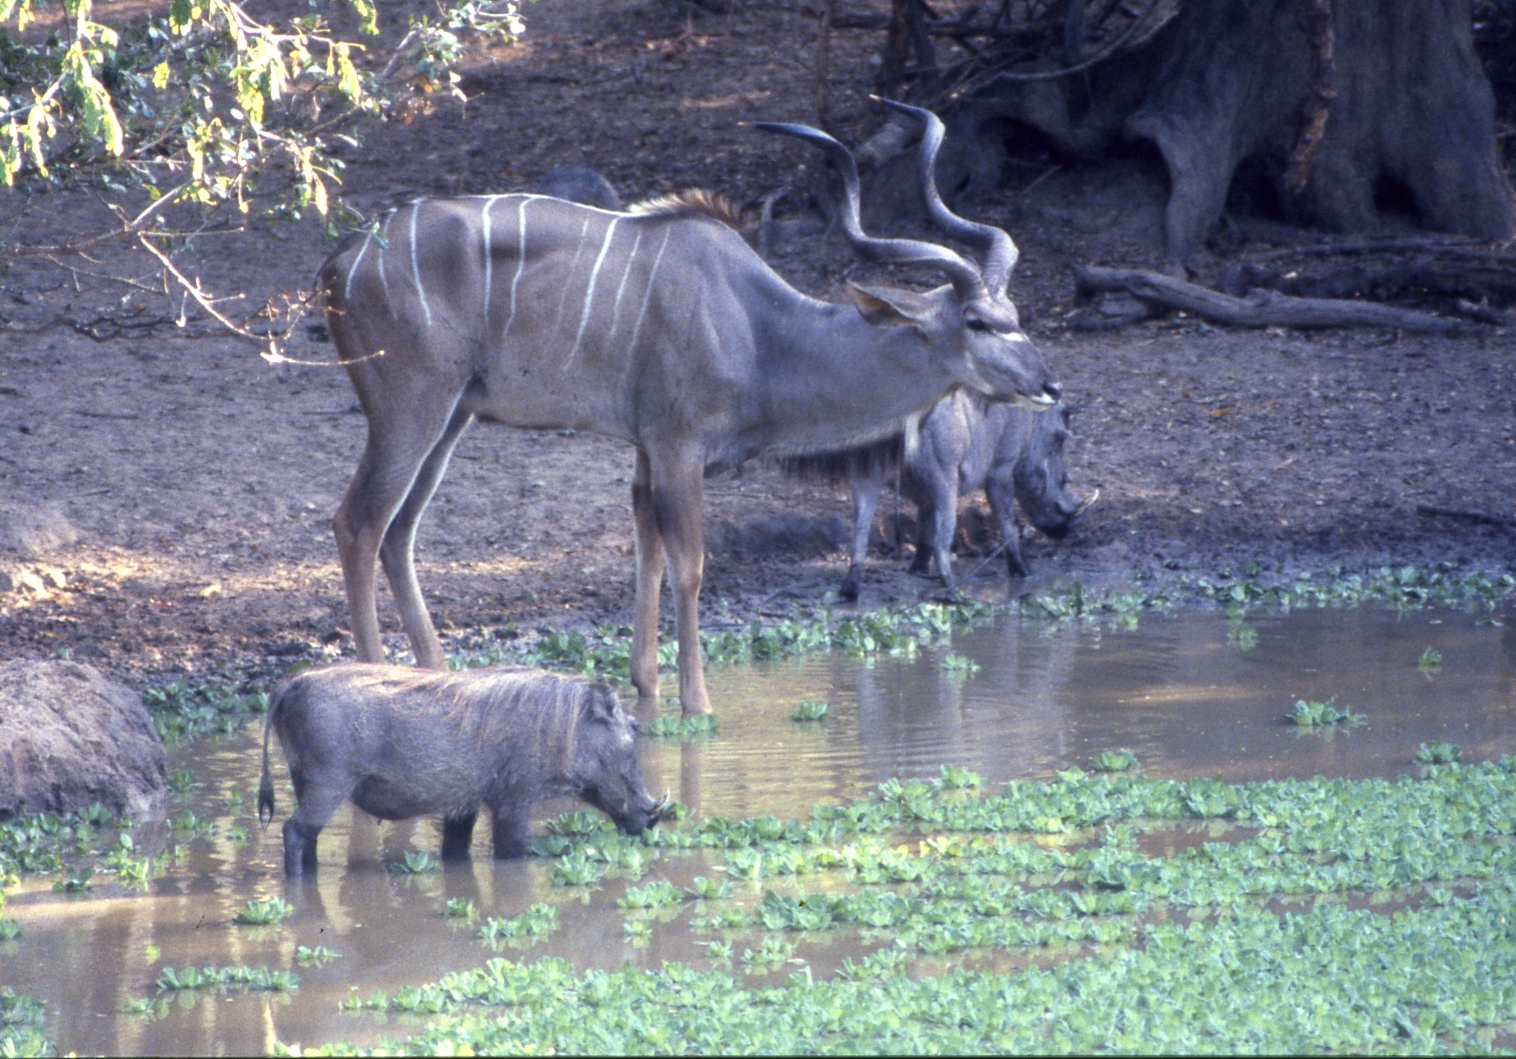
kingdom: Animalia
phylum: Chordata
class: Mammalia
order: Artiodactyla
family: Bovidae
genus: Tragelaphus
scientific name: Tragelaphus strepsiceros
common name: Greater kudu
